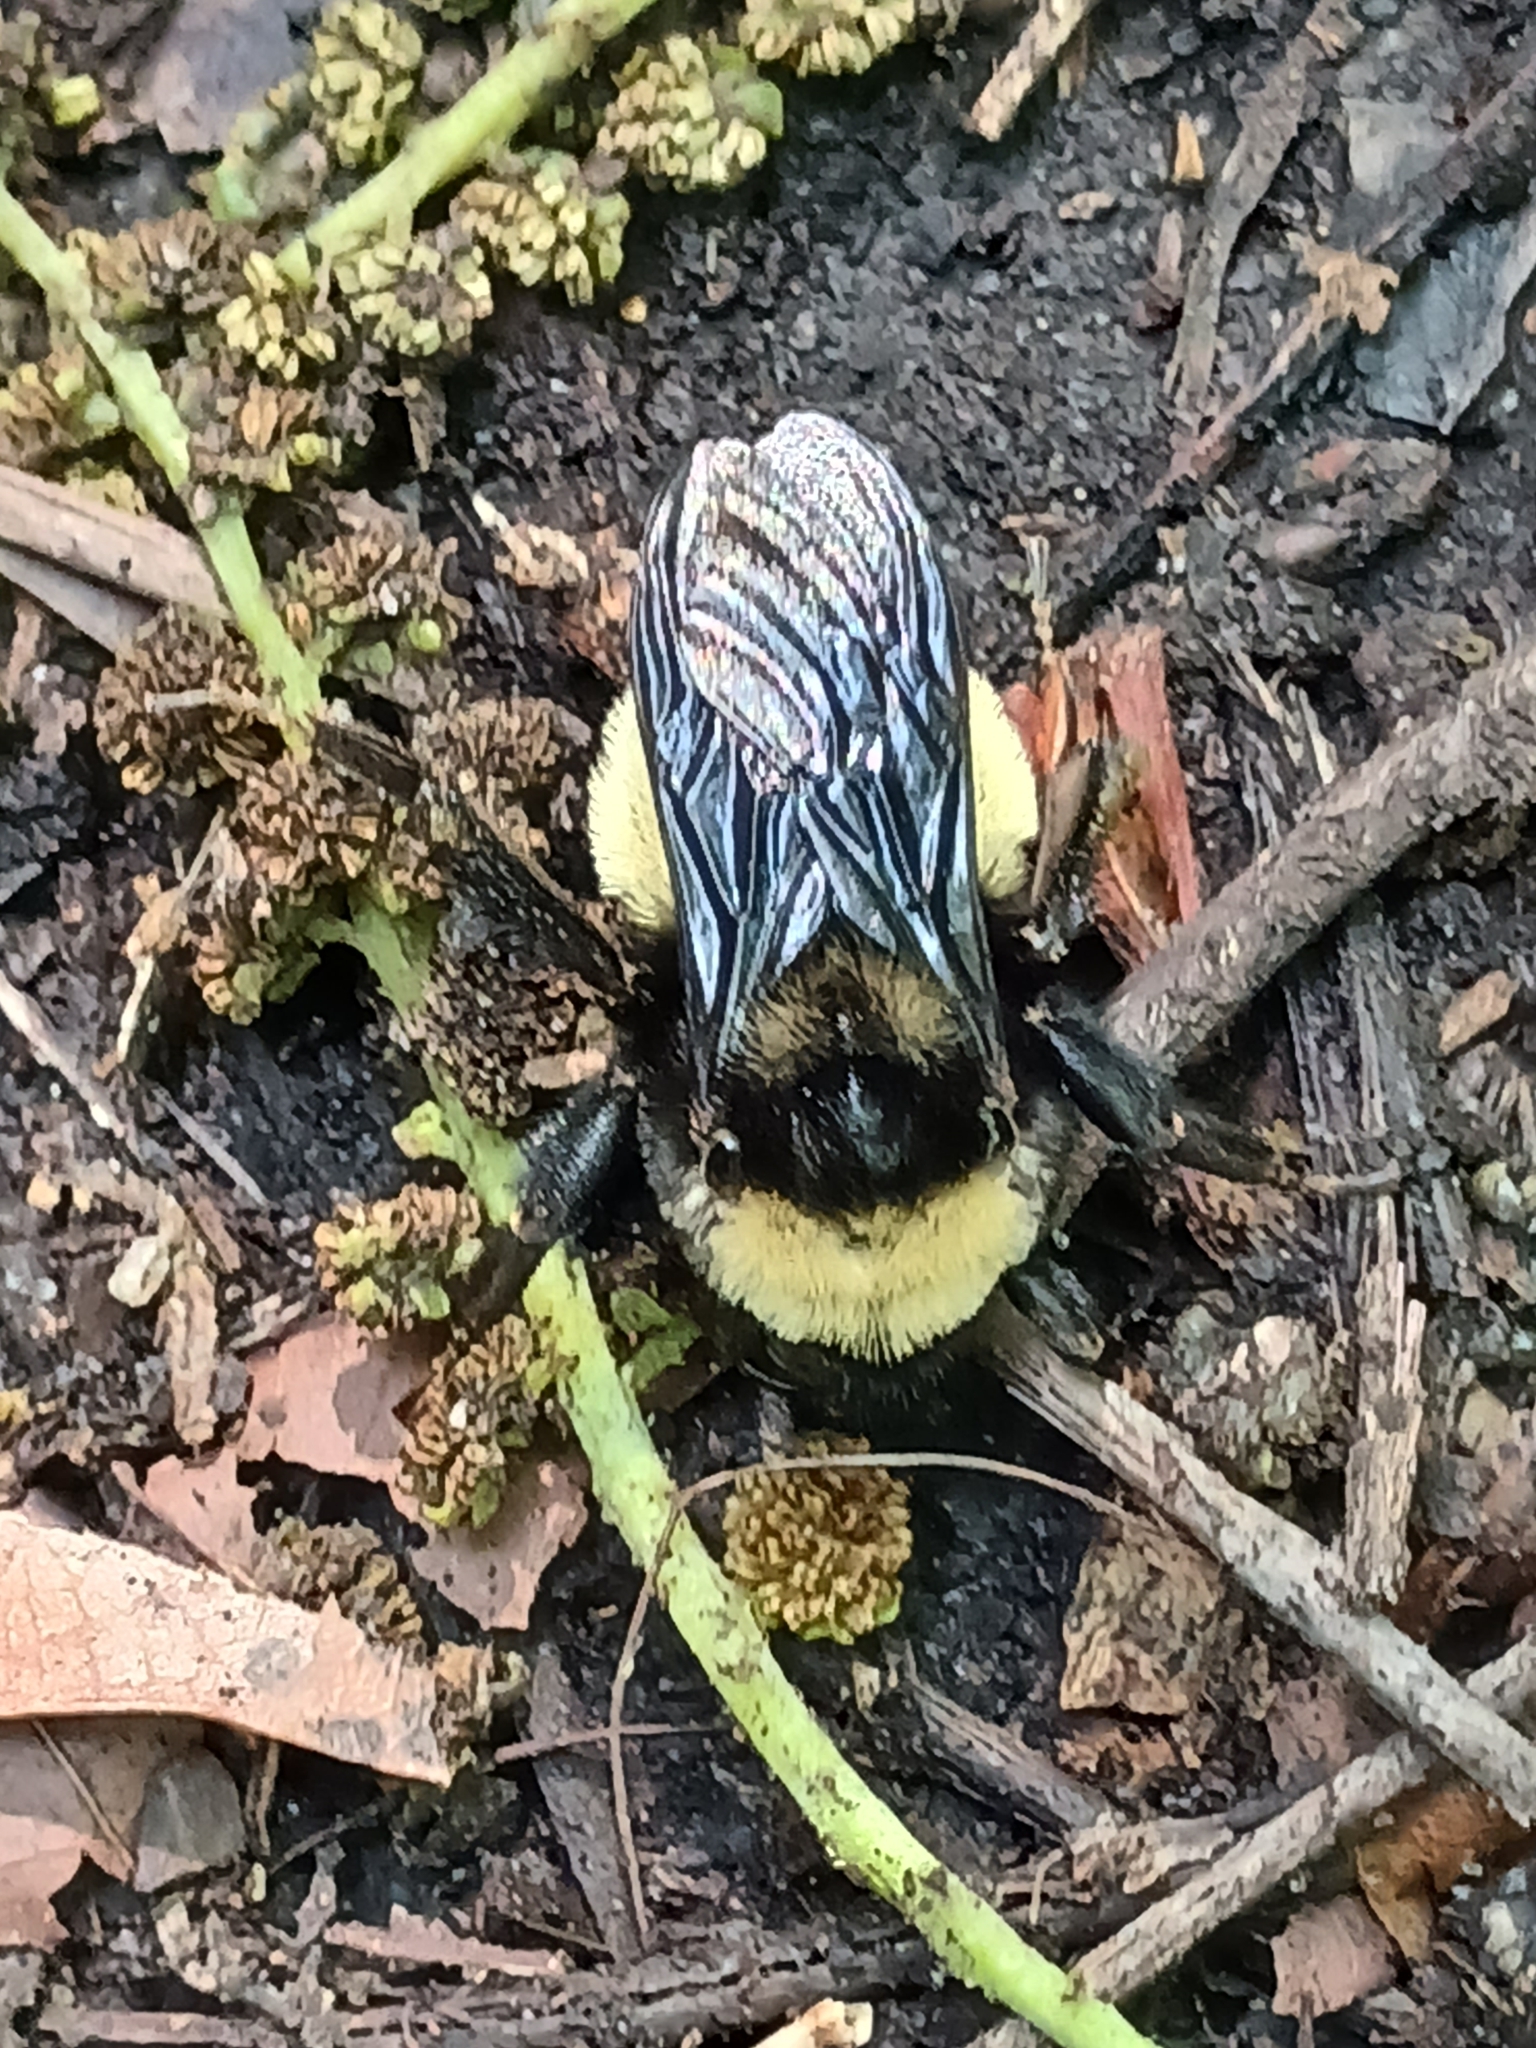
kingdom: Animalia
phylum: Arthropoda
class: Insecta
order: Hymenoptera
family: Apidae
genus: Bombus
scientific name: Bombus pensylvanicus
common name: Bumble bee
